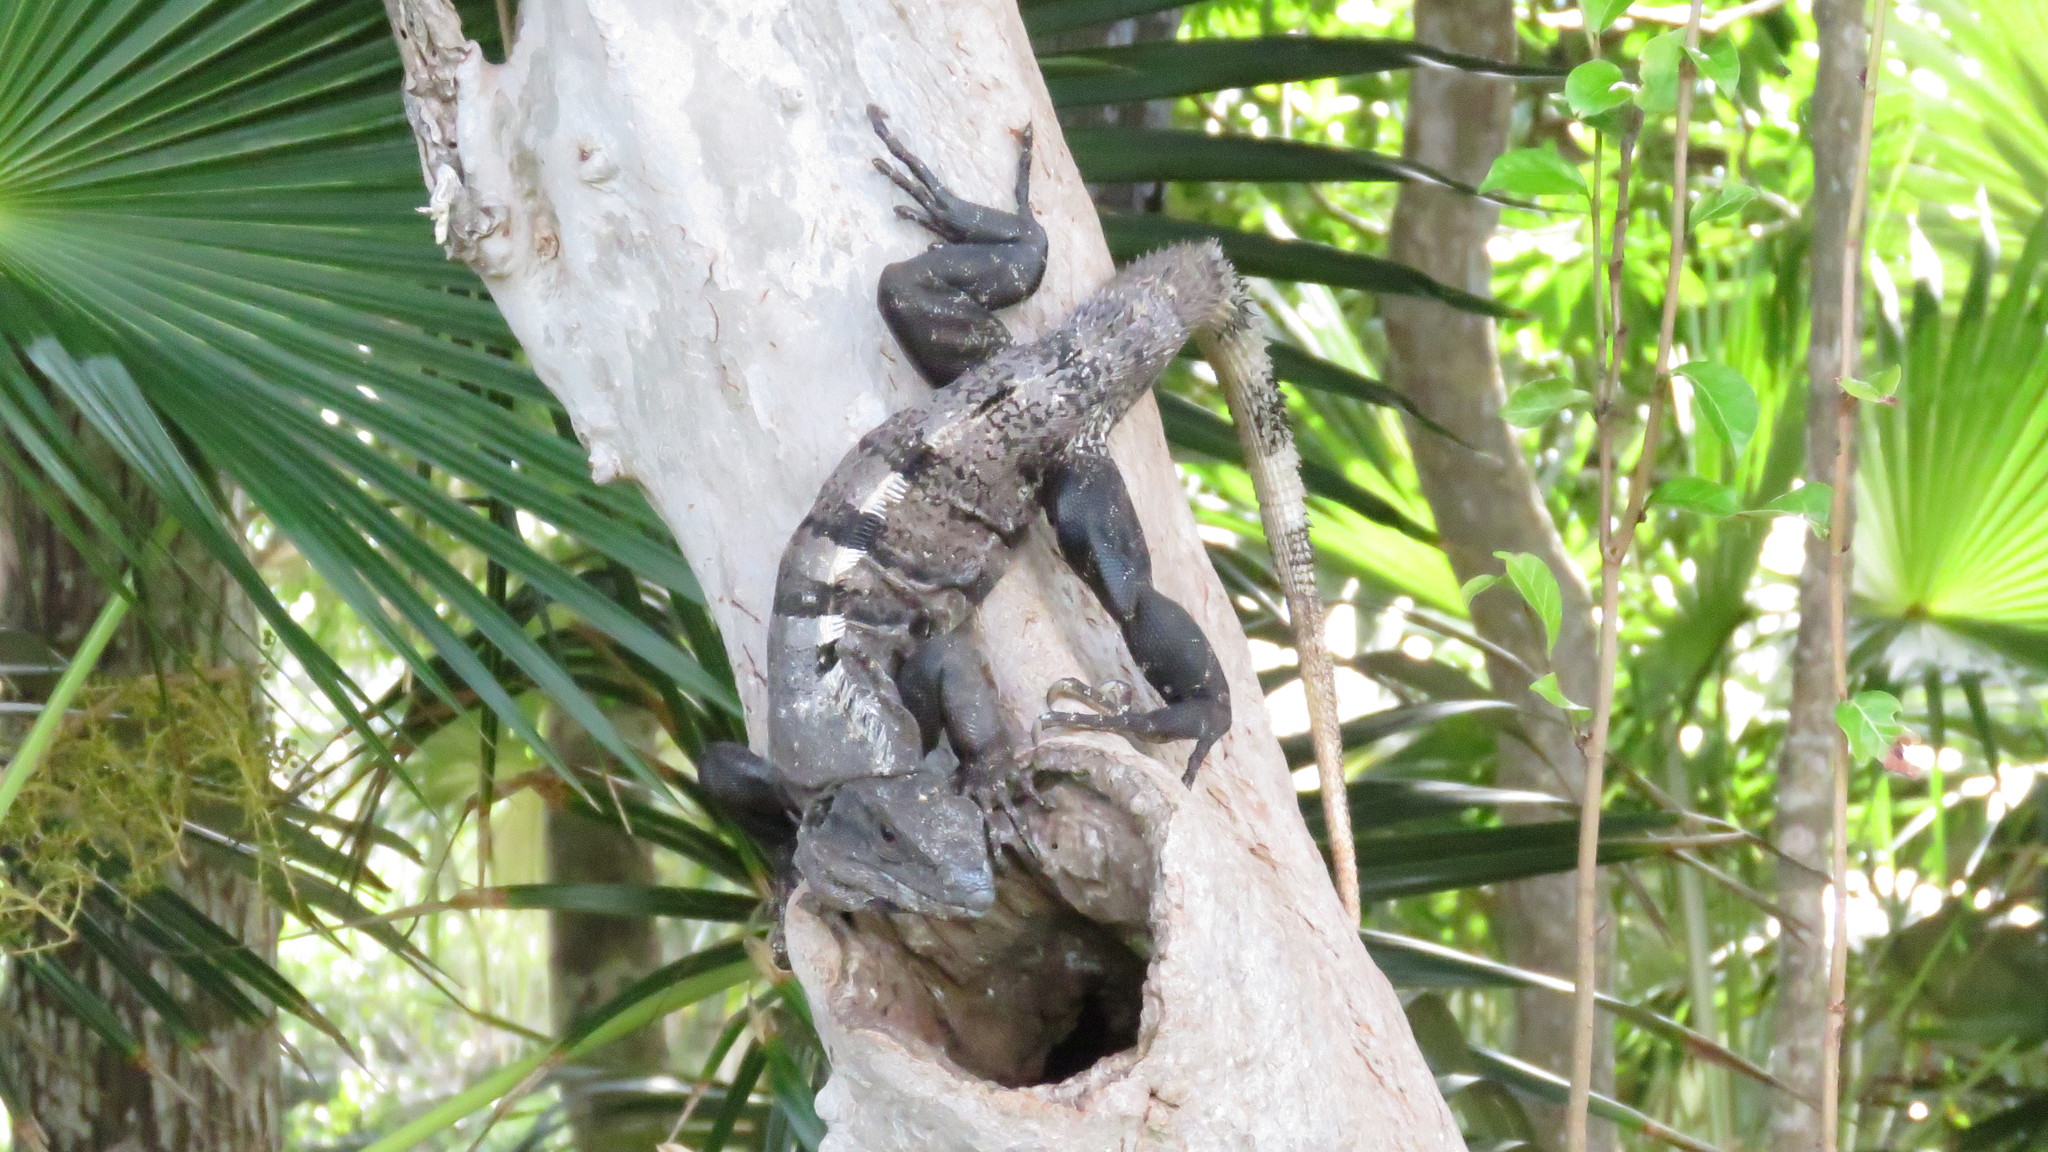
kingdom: Animalia
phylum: Chordata
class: Squamata
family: Iguanidae
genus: Ctenosaura
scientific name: Ctenosaura similis
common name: Black spiny-tailed iguana
